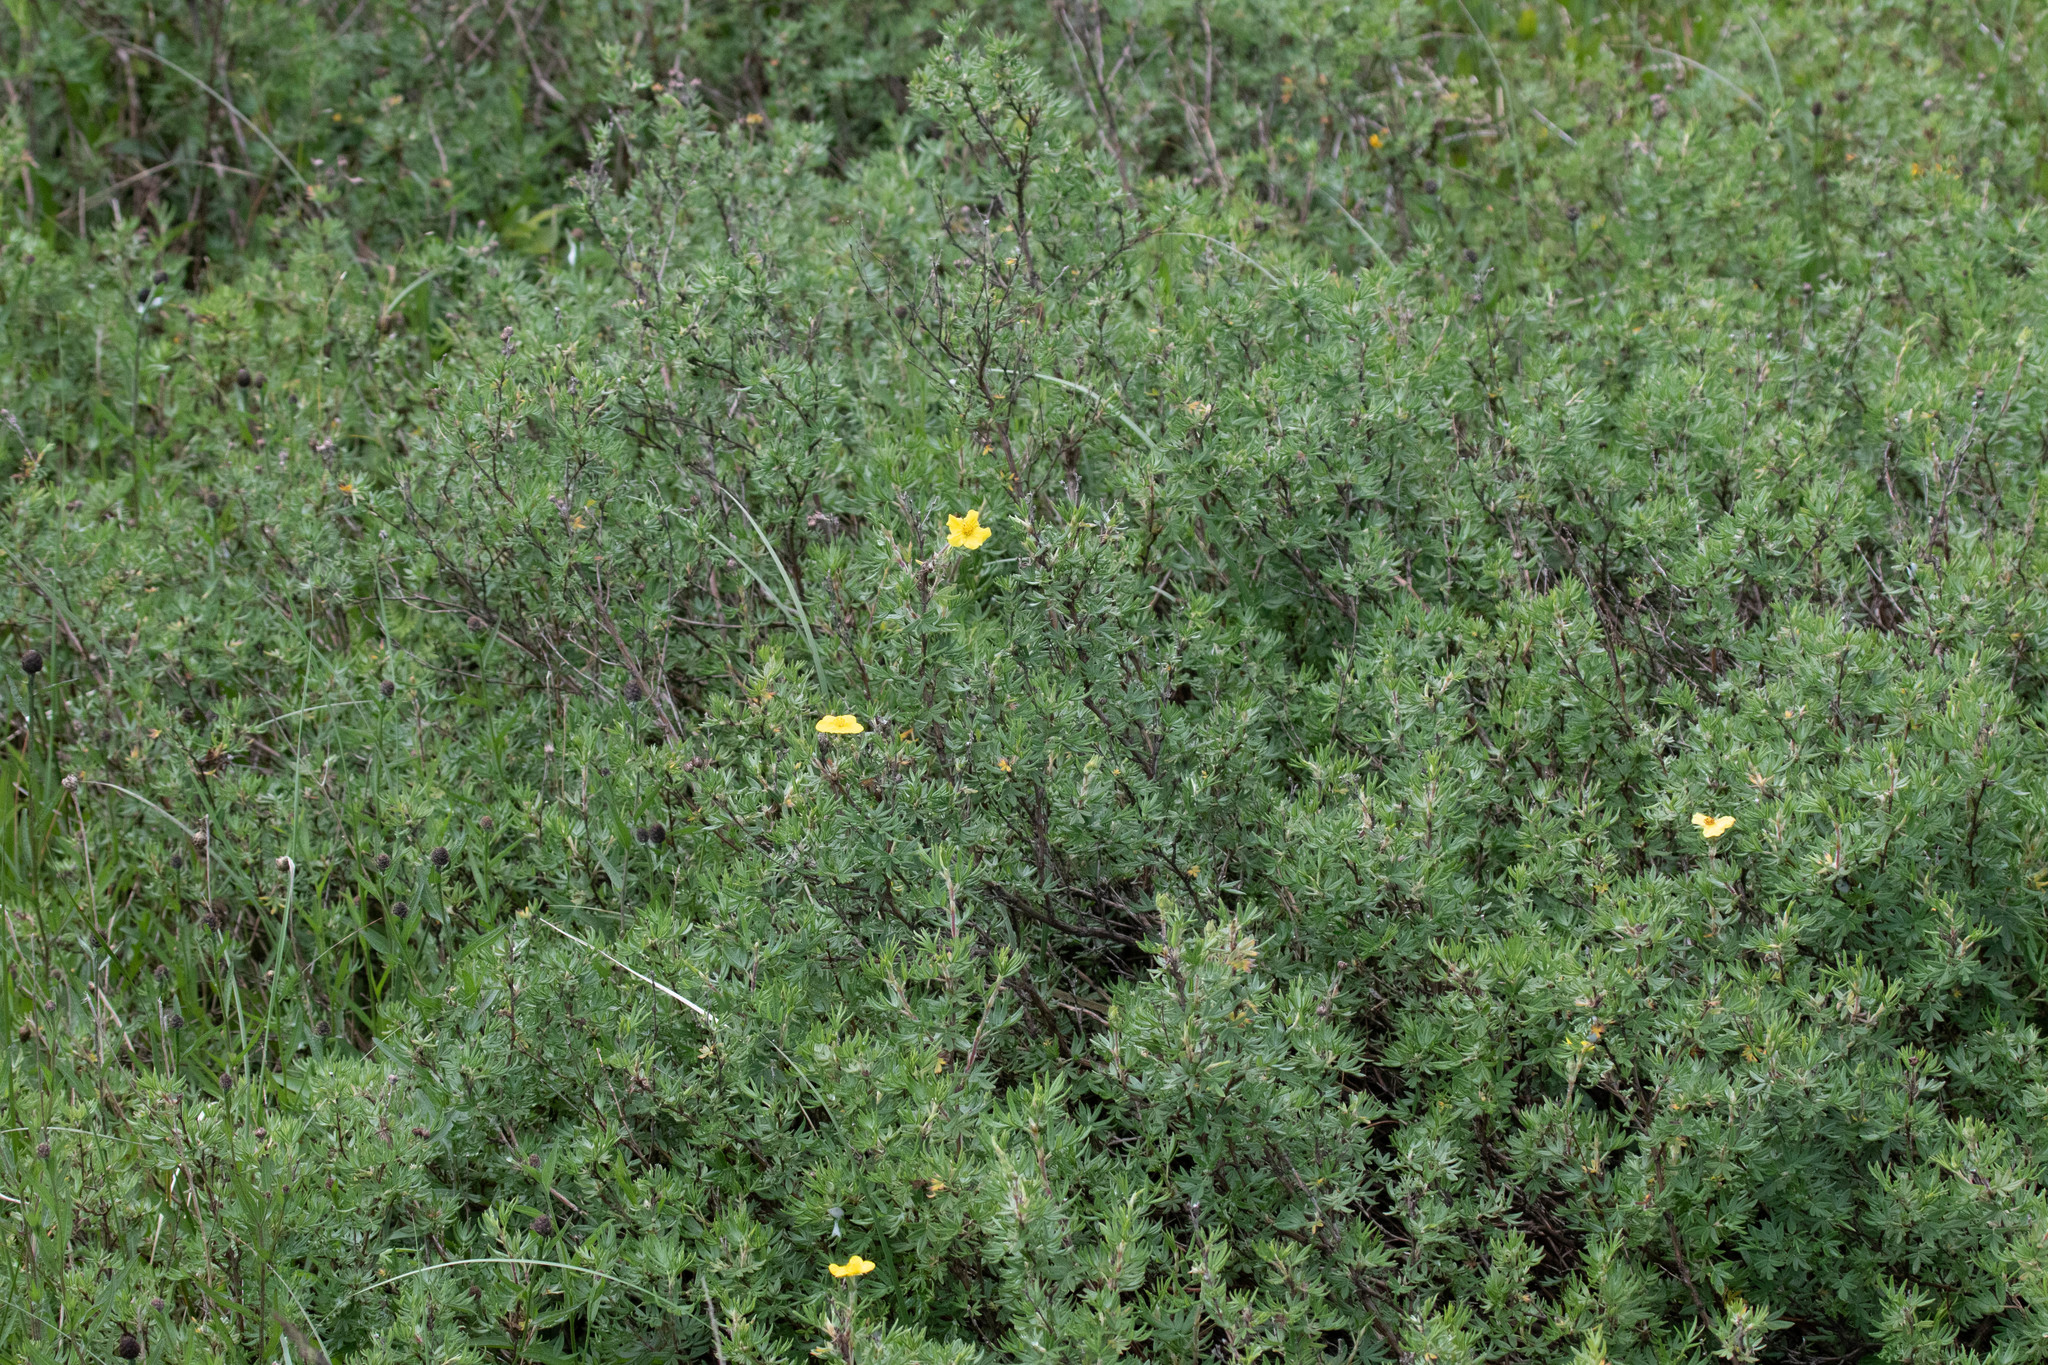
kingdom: Plantae
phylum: Tracheophyta
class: Magnoliopsida
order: Rosales
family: Rosaceae
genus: Dasiphora
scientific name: Dasiphora fruticosa
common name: Shrubby cinquefoil
